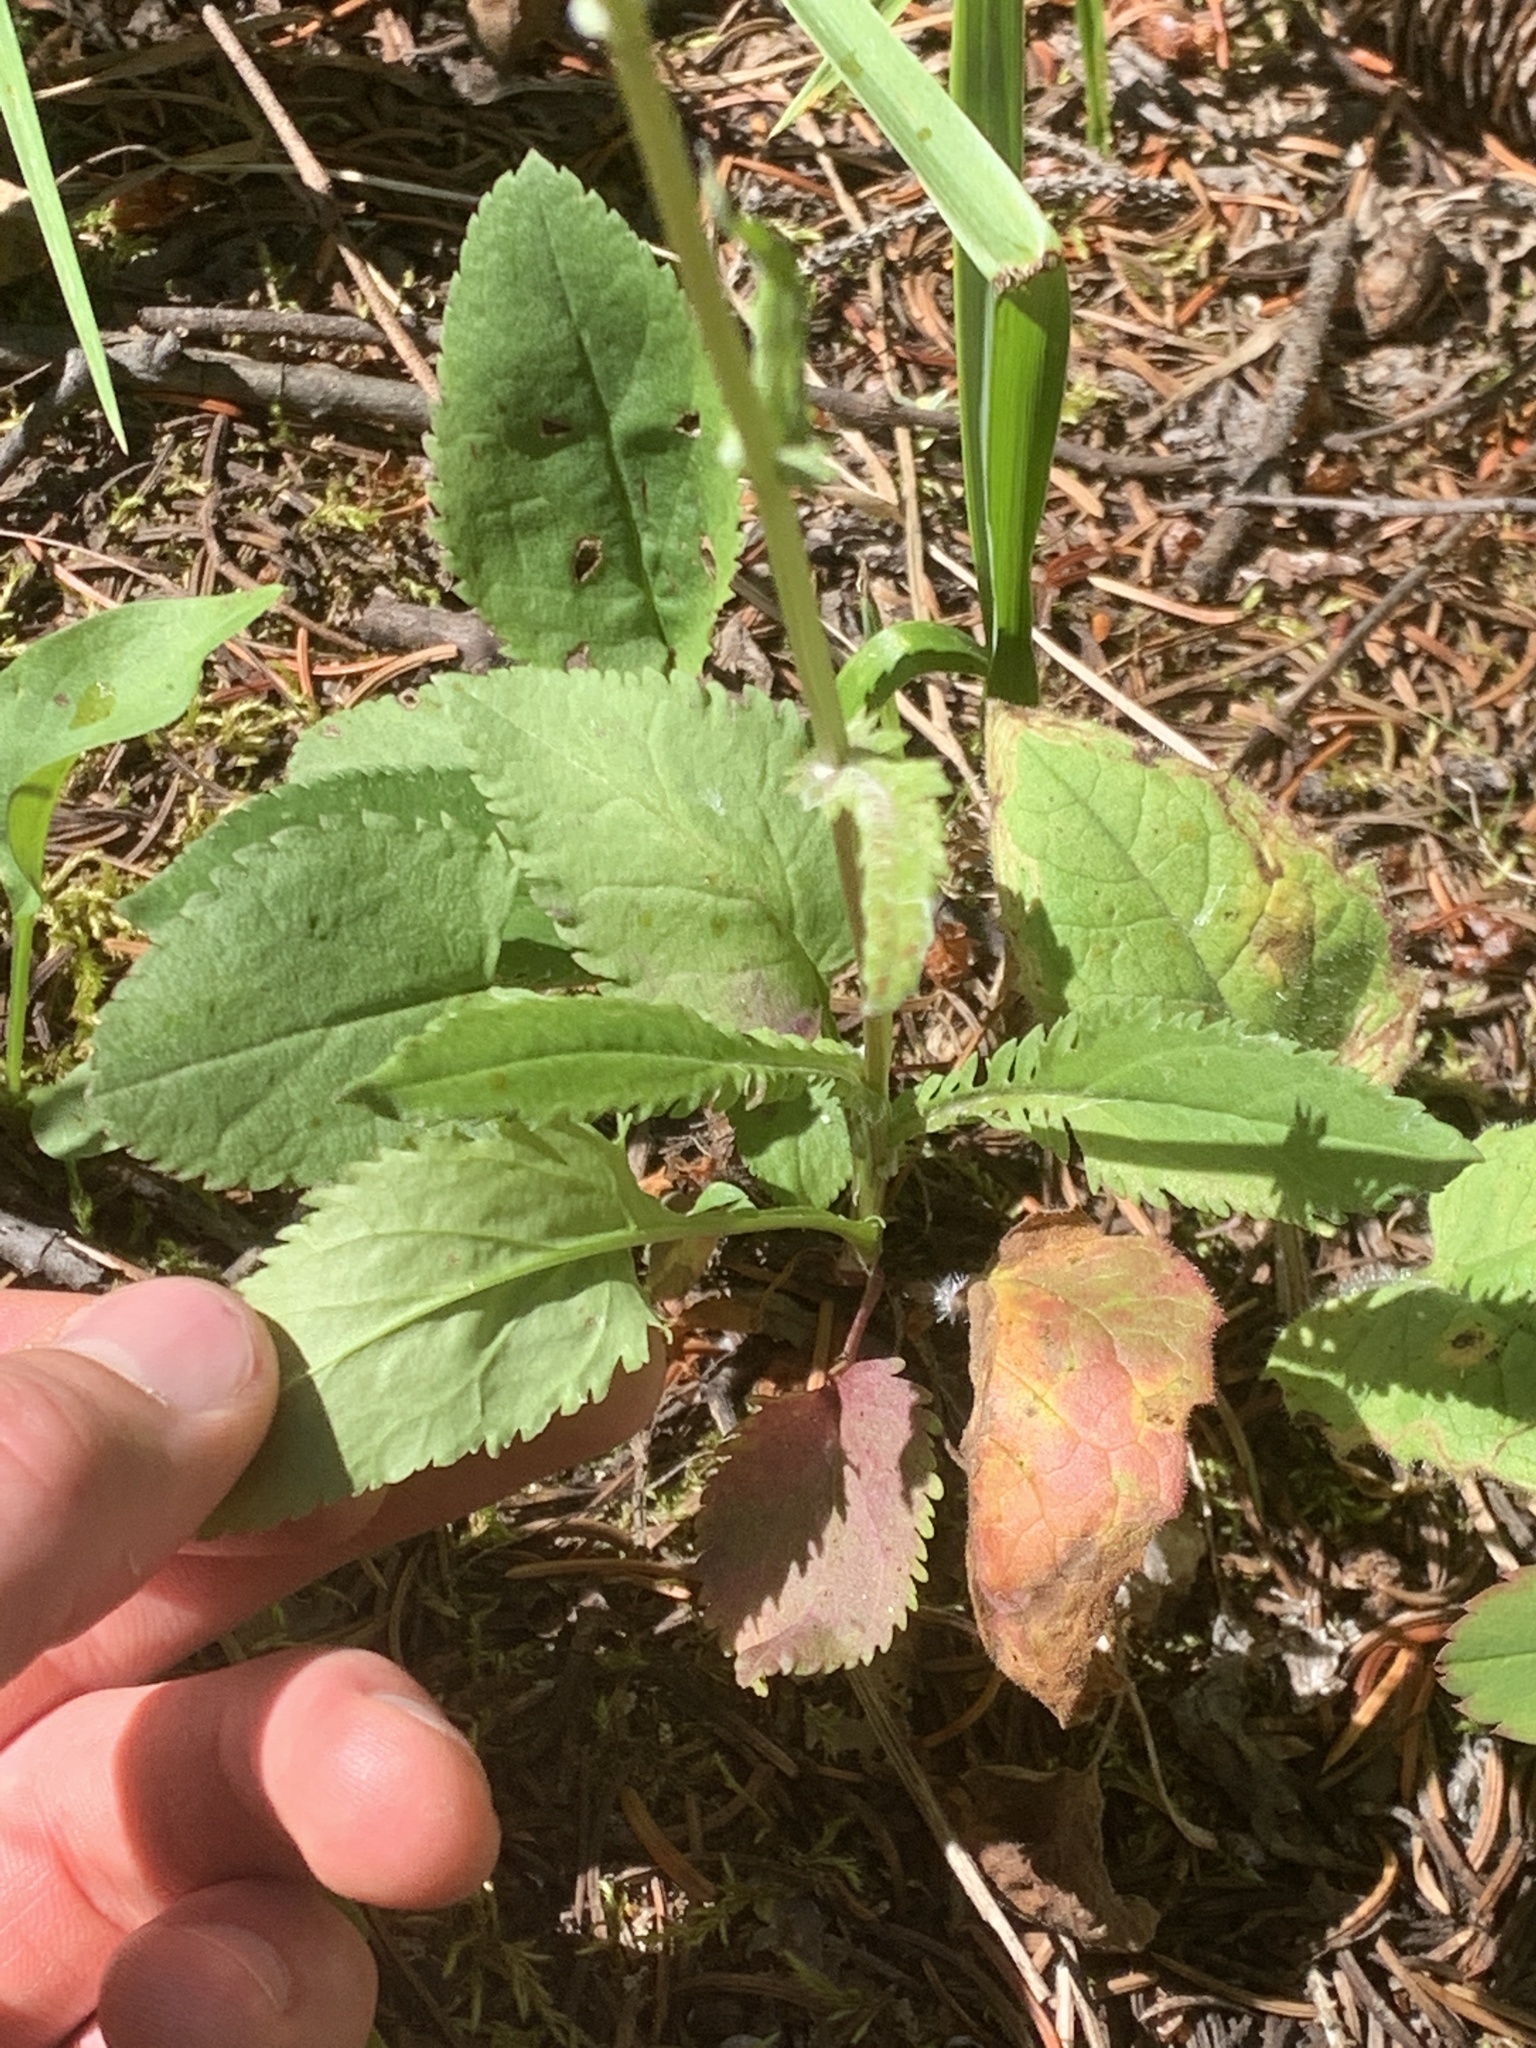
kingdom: Plantae
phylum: Tracheophyta
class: Magnoliopsida
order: Asterales
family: Asteraceae
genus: Packera
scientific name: Packera paupercula
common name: Balsam groundsel
